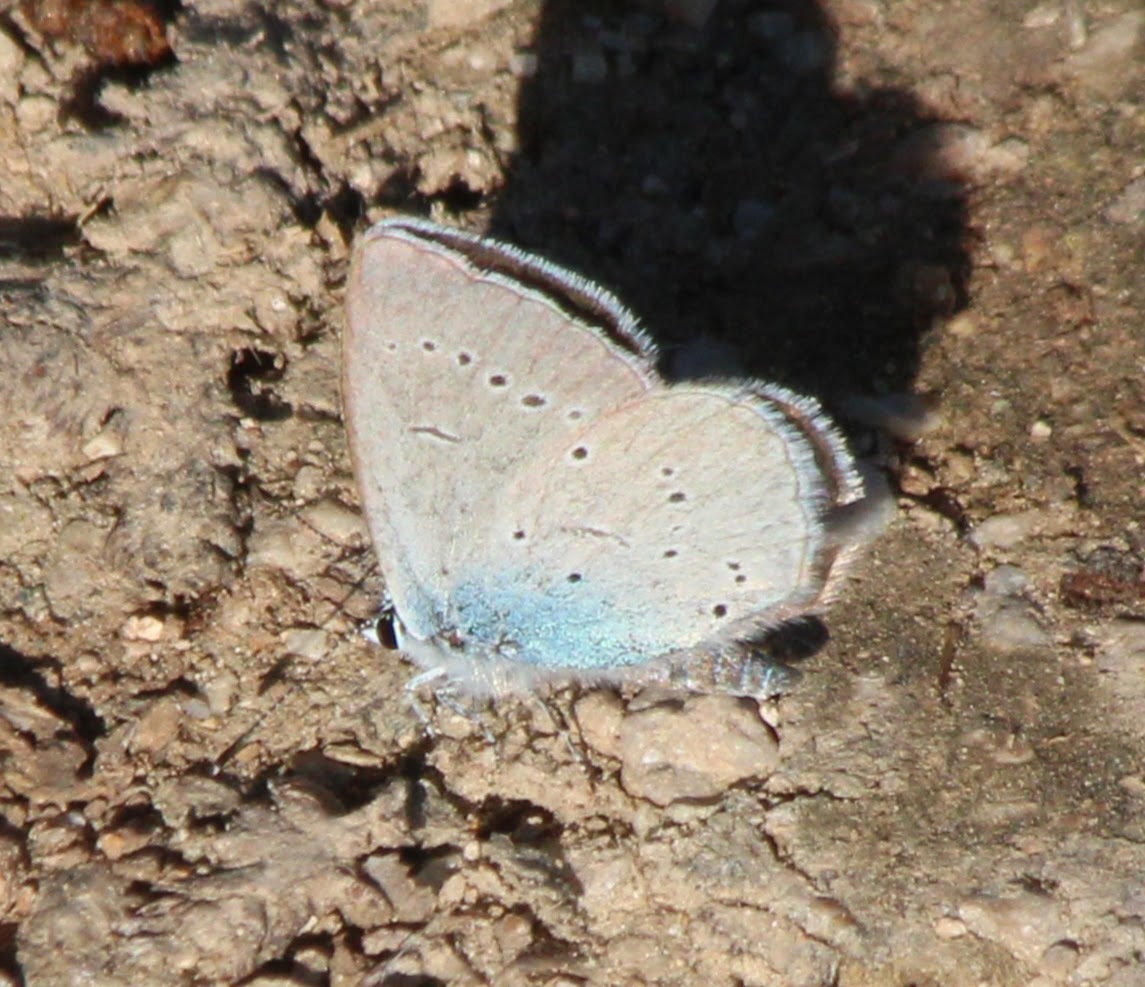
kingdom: Animalia
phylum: Arthropoda
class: Insecta
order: Lepidoptera
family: Lycaenidae
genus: Everes
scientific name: Everes sebrus
